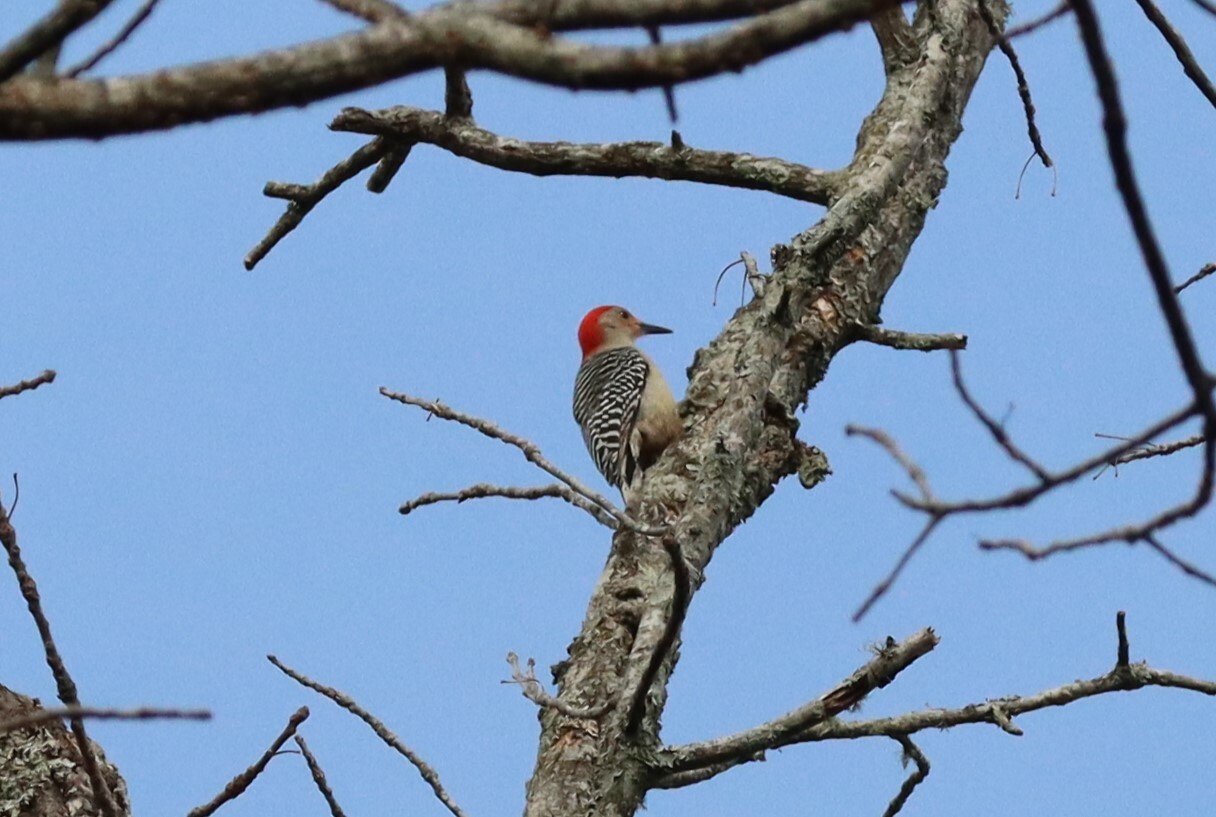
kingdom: Animalia
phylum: Chordata
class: Aves
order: Piciformes
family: Picidae
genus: Melanerpes
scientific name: Melanerpes carolinus
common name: Red-bellied woodpecker
